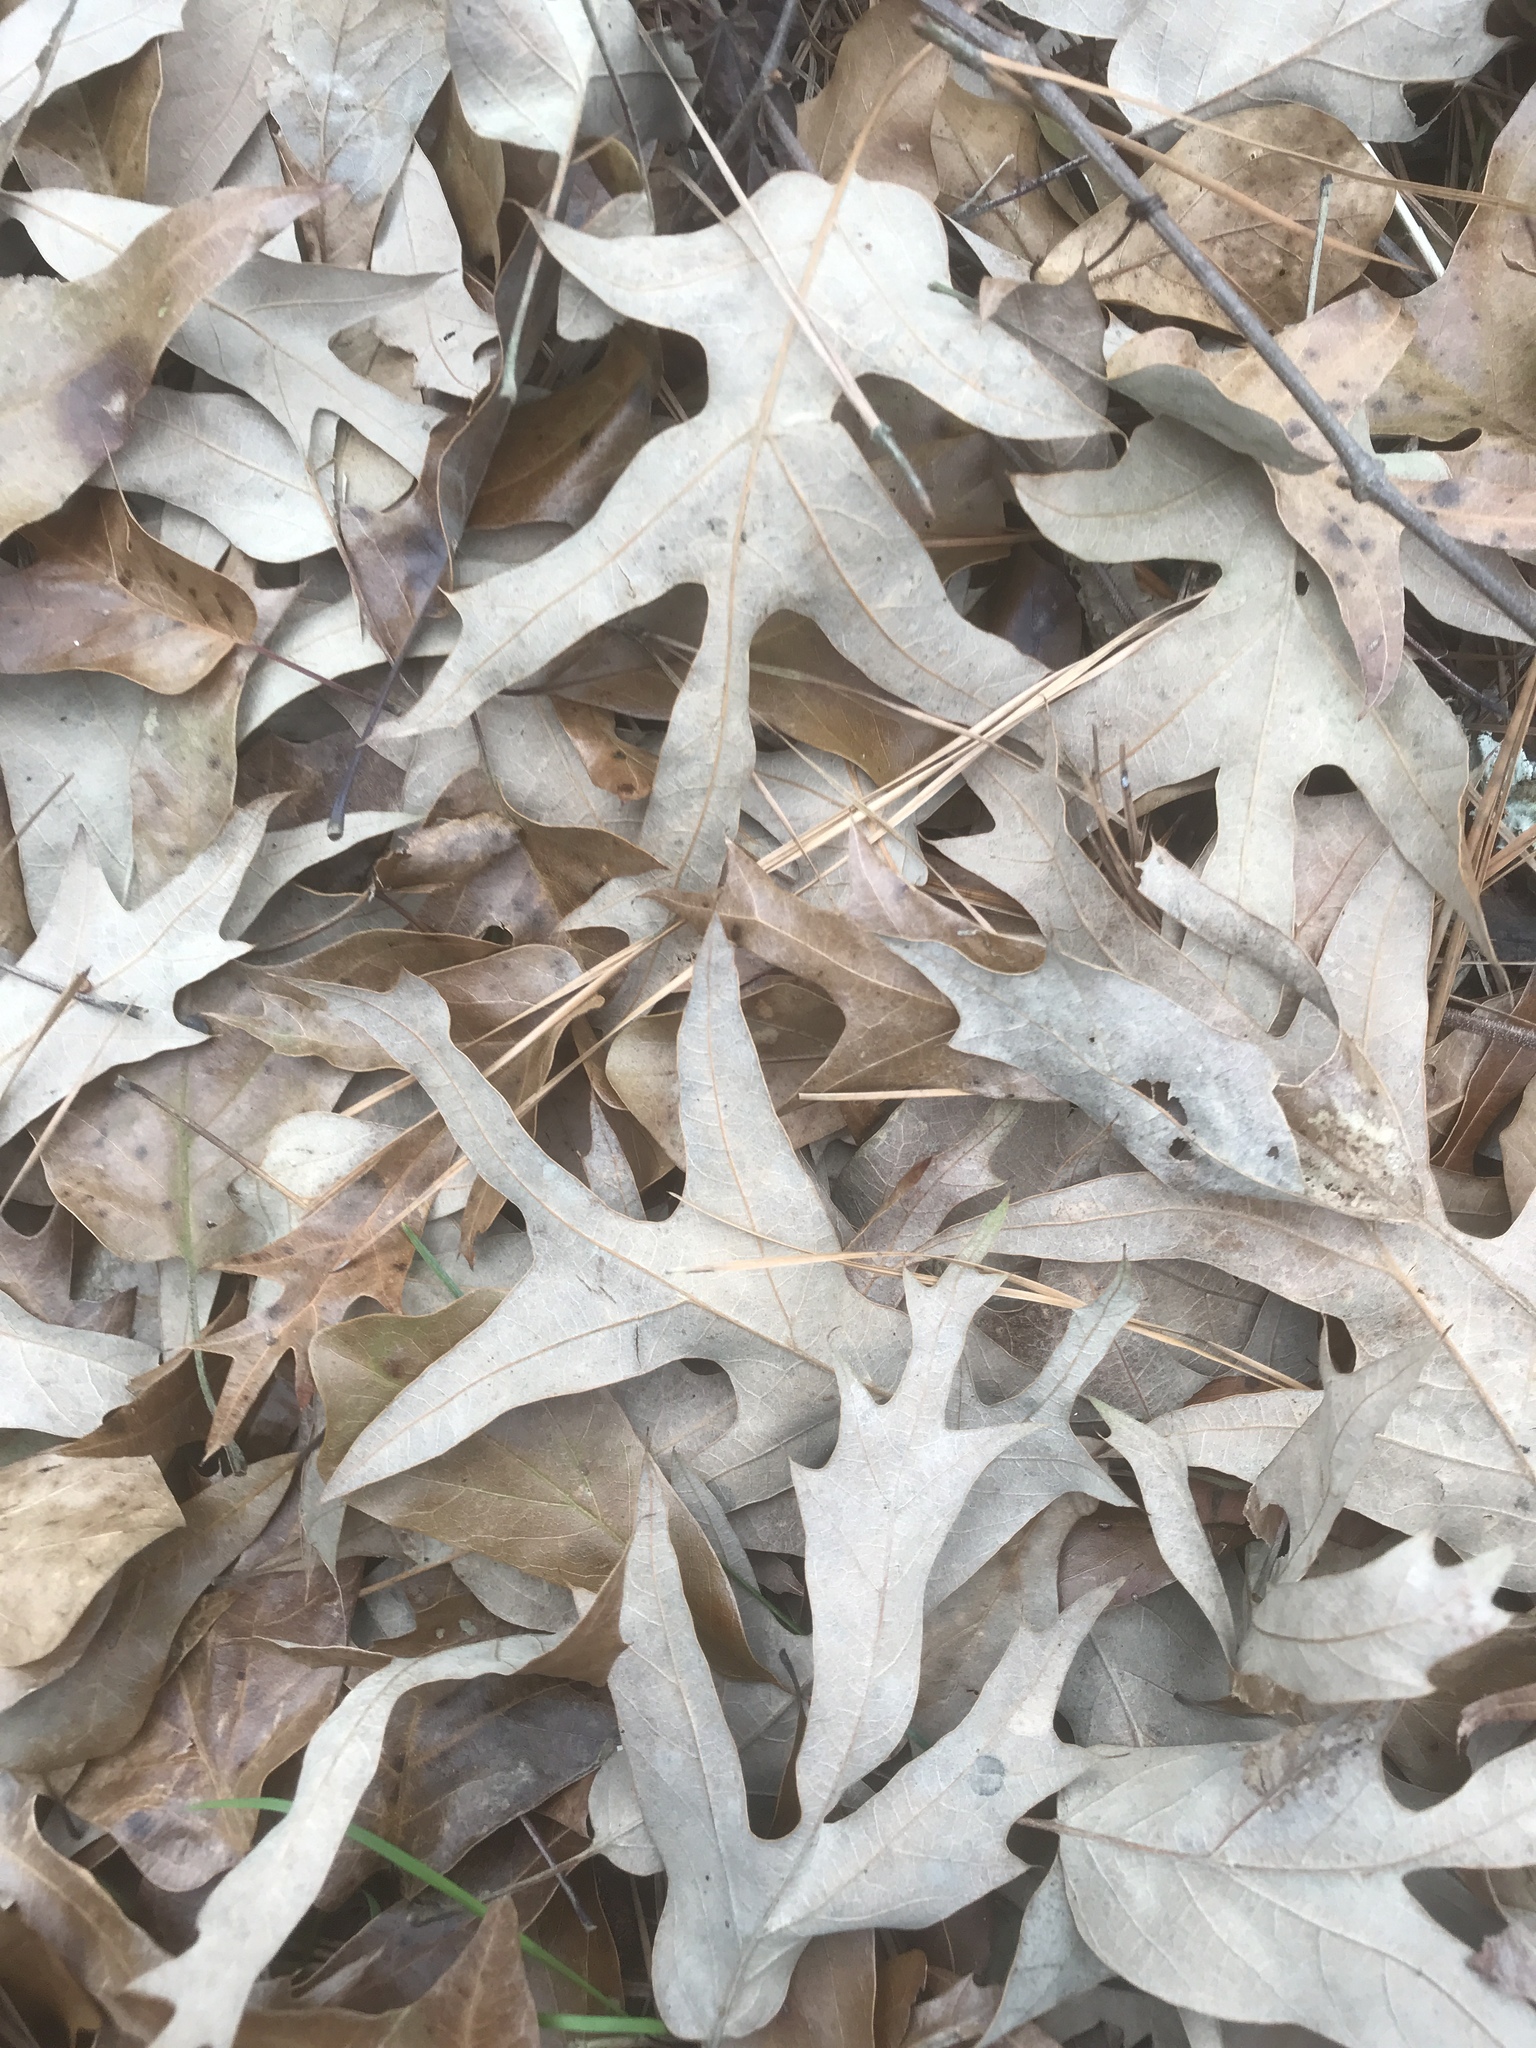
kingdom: Plantae
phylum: Tracheophyta
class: Magnoliopsida
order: Fagales
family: Fagaceae
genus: Quercus
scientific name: Quercus falcata
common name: Southern red oak
